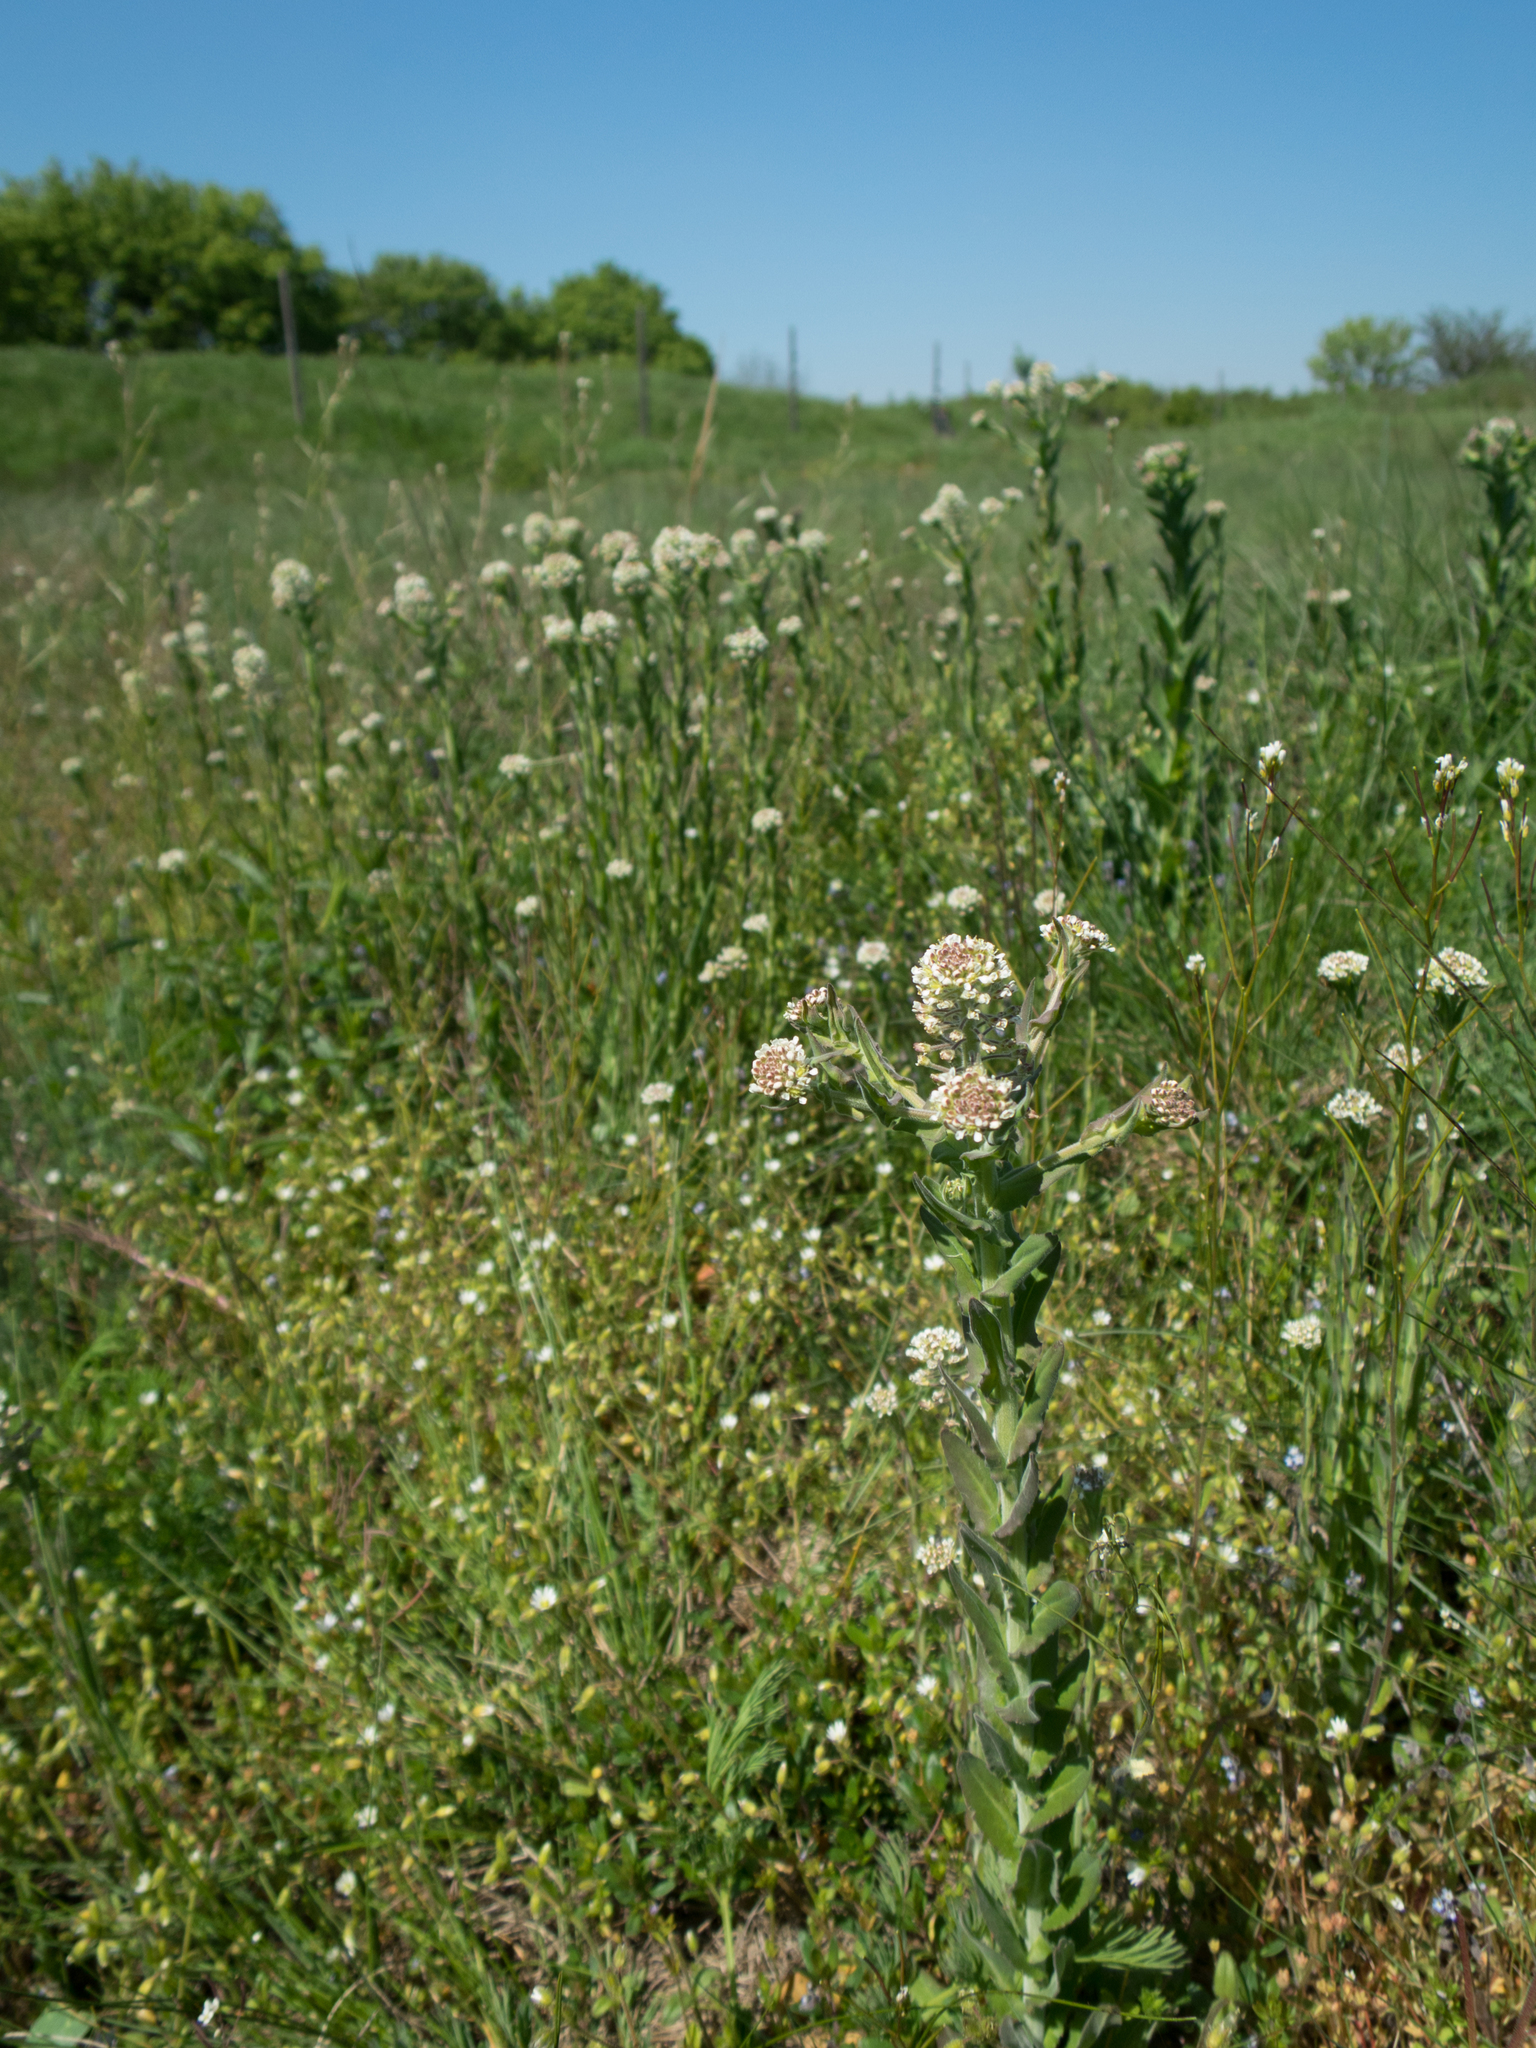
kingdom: Plantae
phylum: Tracheophyta
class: Magnoliopsida
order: Brassicales
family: Brassicaceae
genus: Lepidium
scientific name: Lepidium campestre
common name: Field pepperwort
